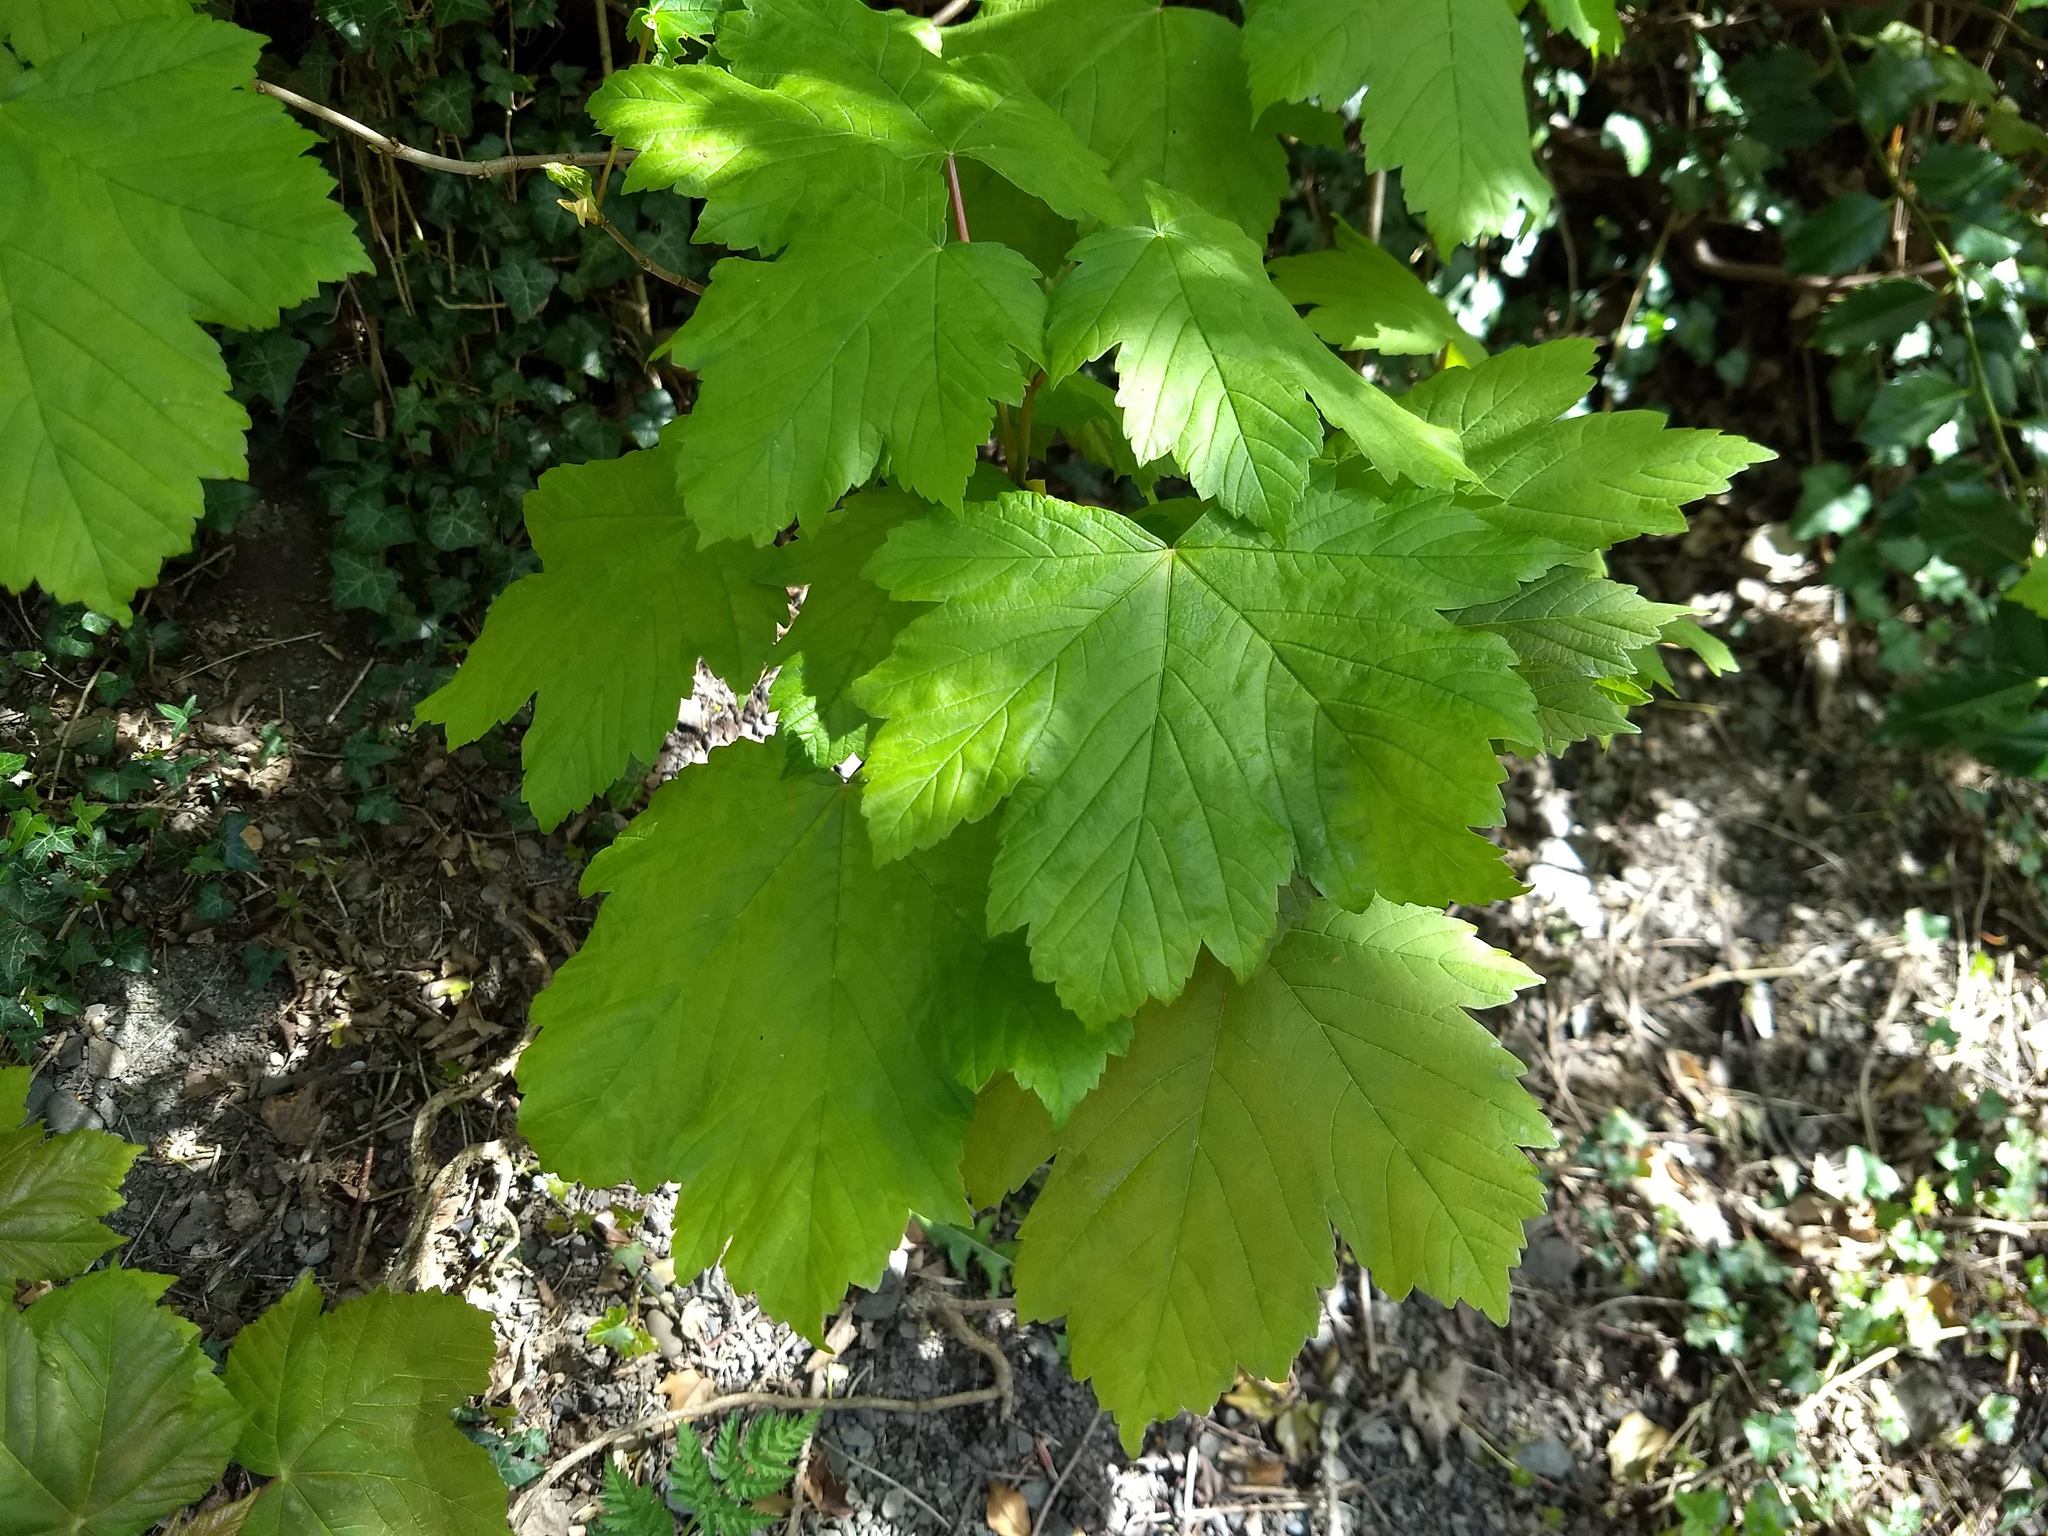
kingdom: Plantae
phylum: Tracheophyta
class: Magnoliopsida
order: Sapindales
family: Sapindaceae
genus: Acer
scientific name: Acer pseudoplatanus
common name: Sycamore
